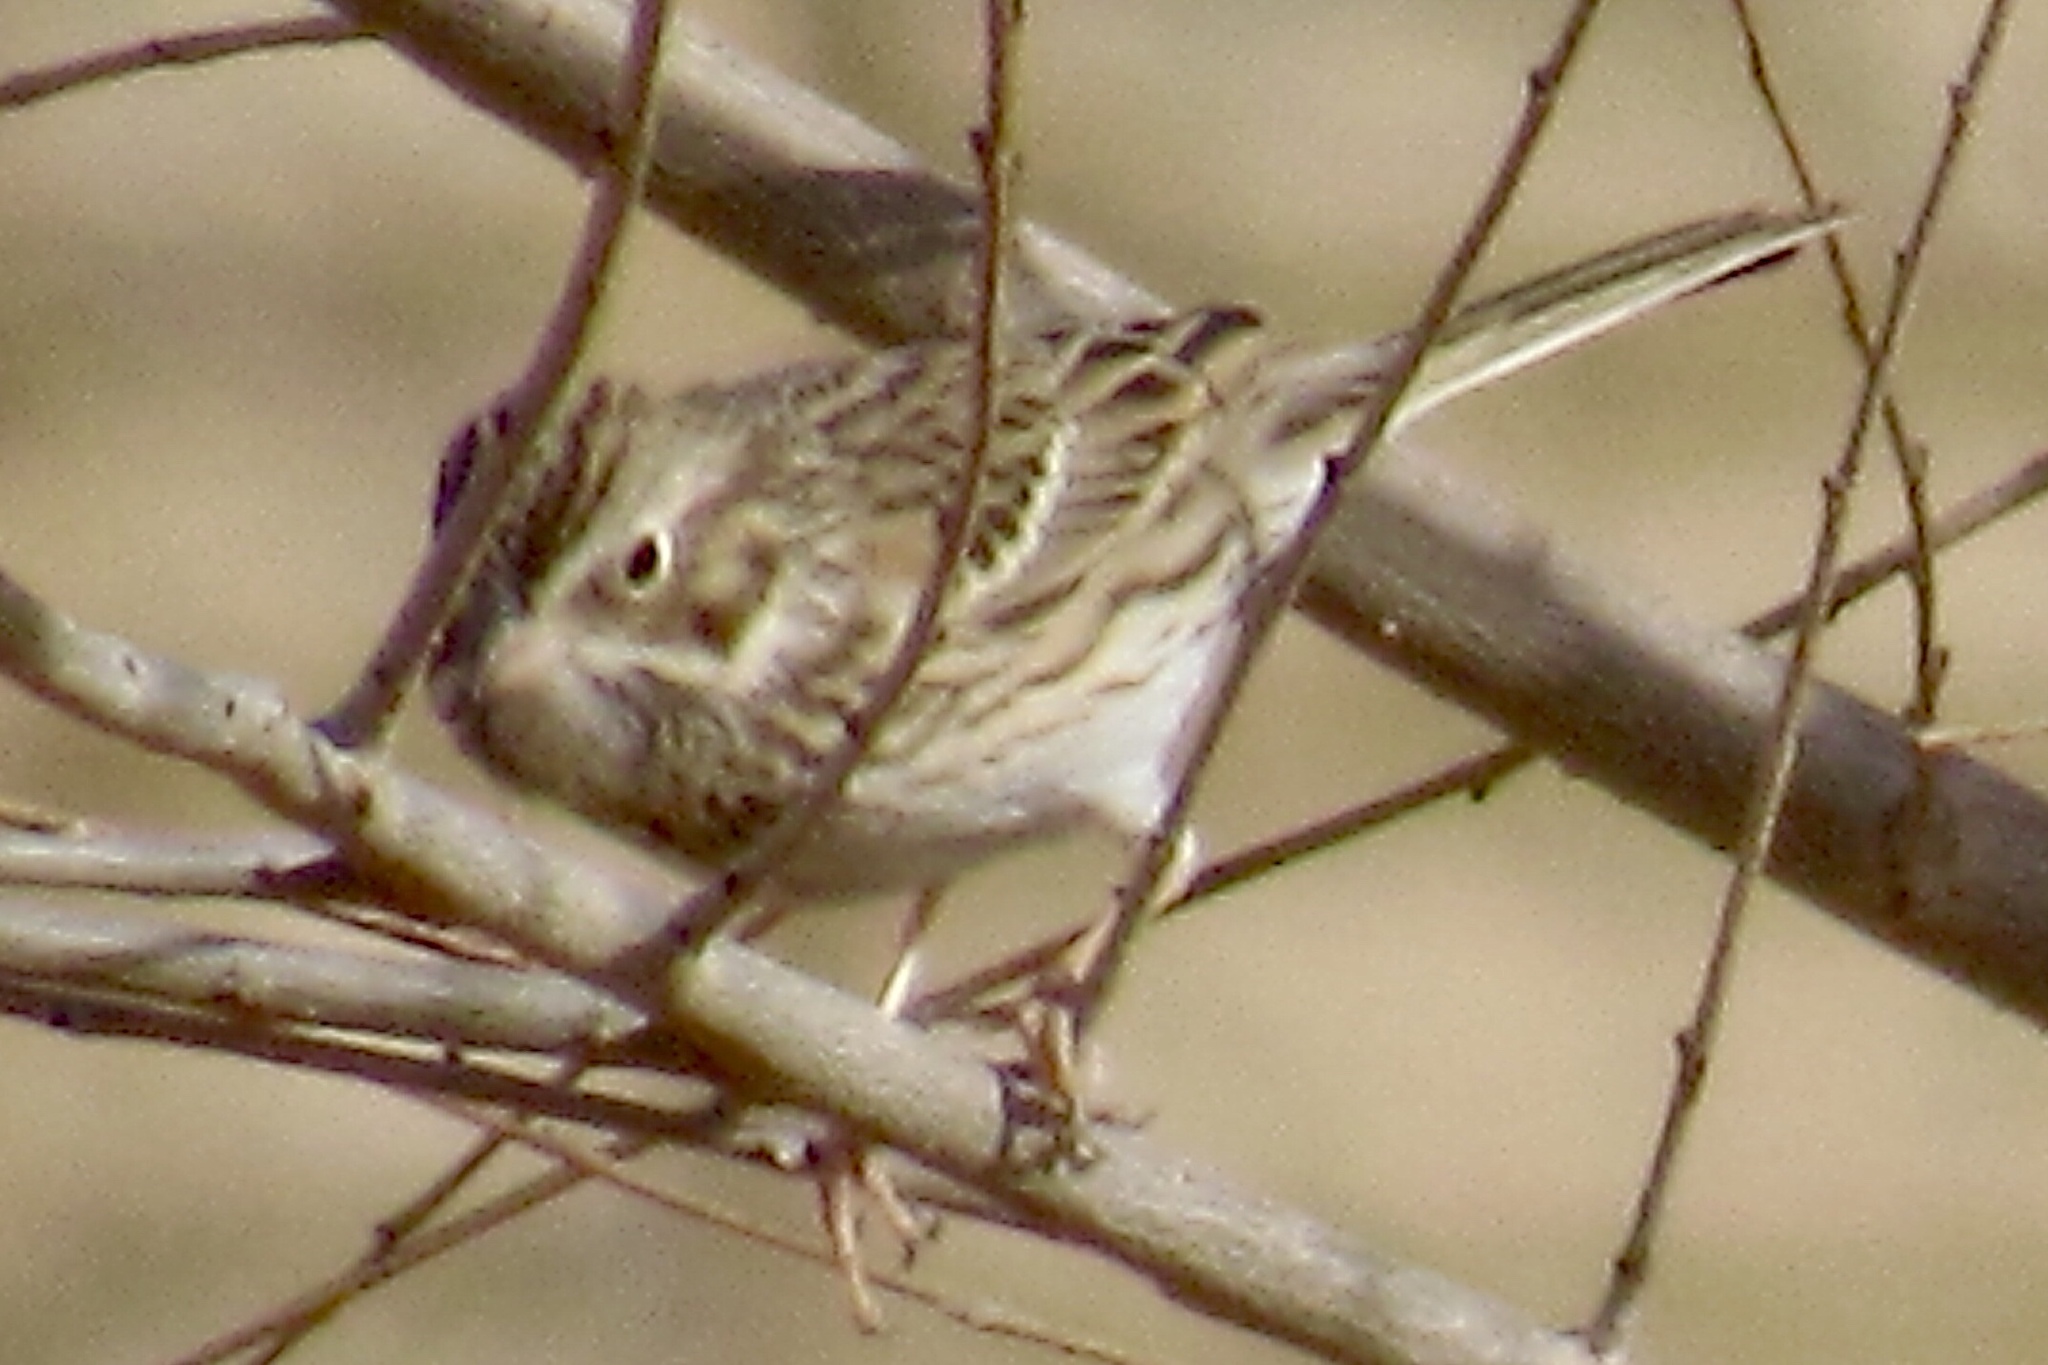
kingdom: Animalia
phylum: Chordata
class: Aves
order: Passeriformes
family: Passerellidae
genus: Pooecetes
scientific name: Pooecetes gramineus
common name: Vesper sparrow
